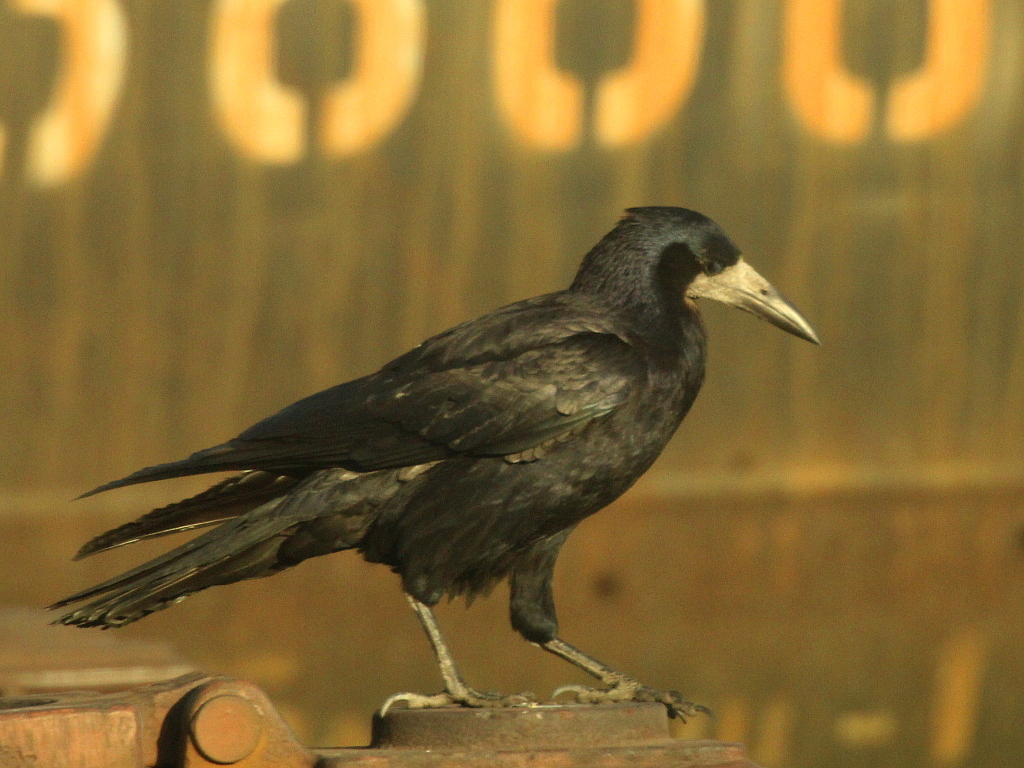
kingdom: Animalia
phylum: Chordata
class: Aves
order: Passeriformes
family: Corvidae
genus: Corvus
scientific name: Corvus frugilegus
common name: Rook
